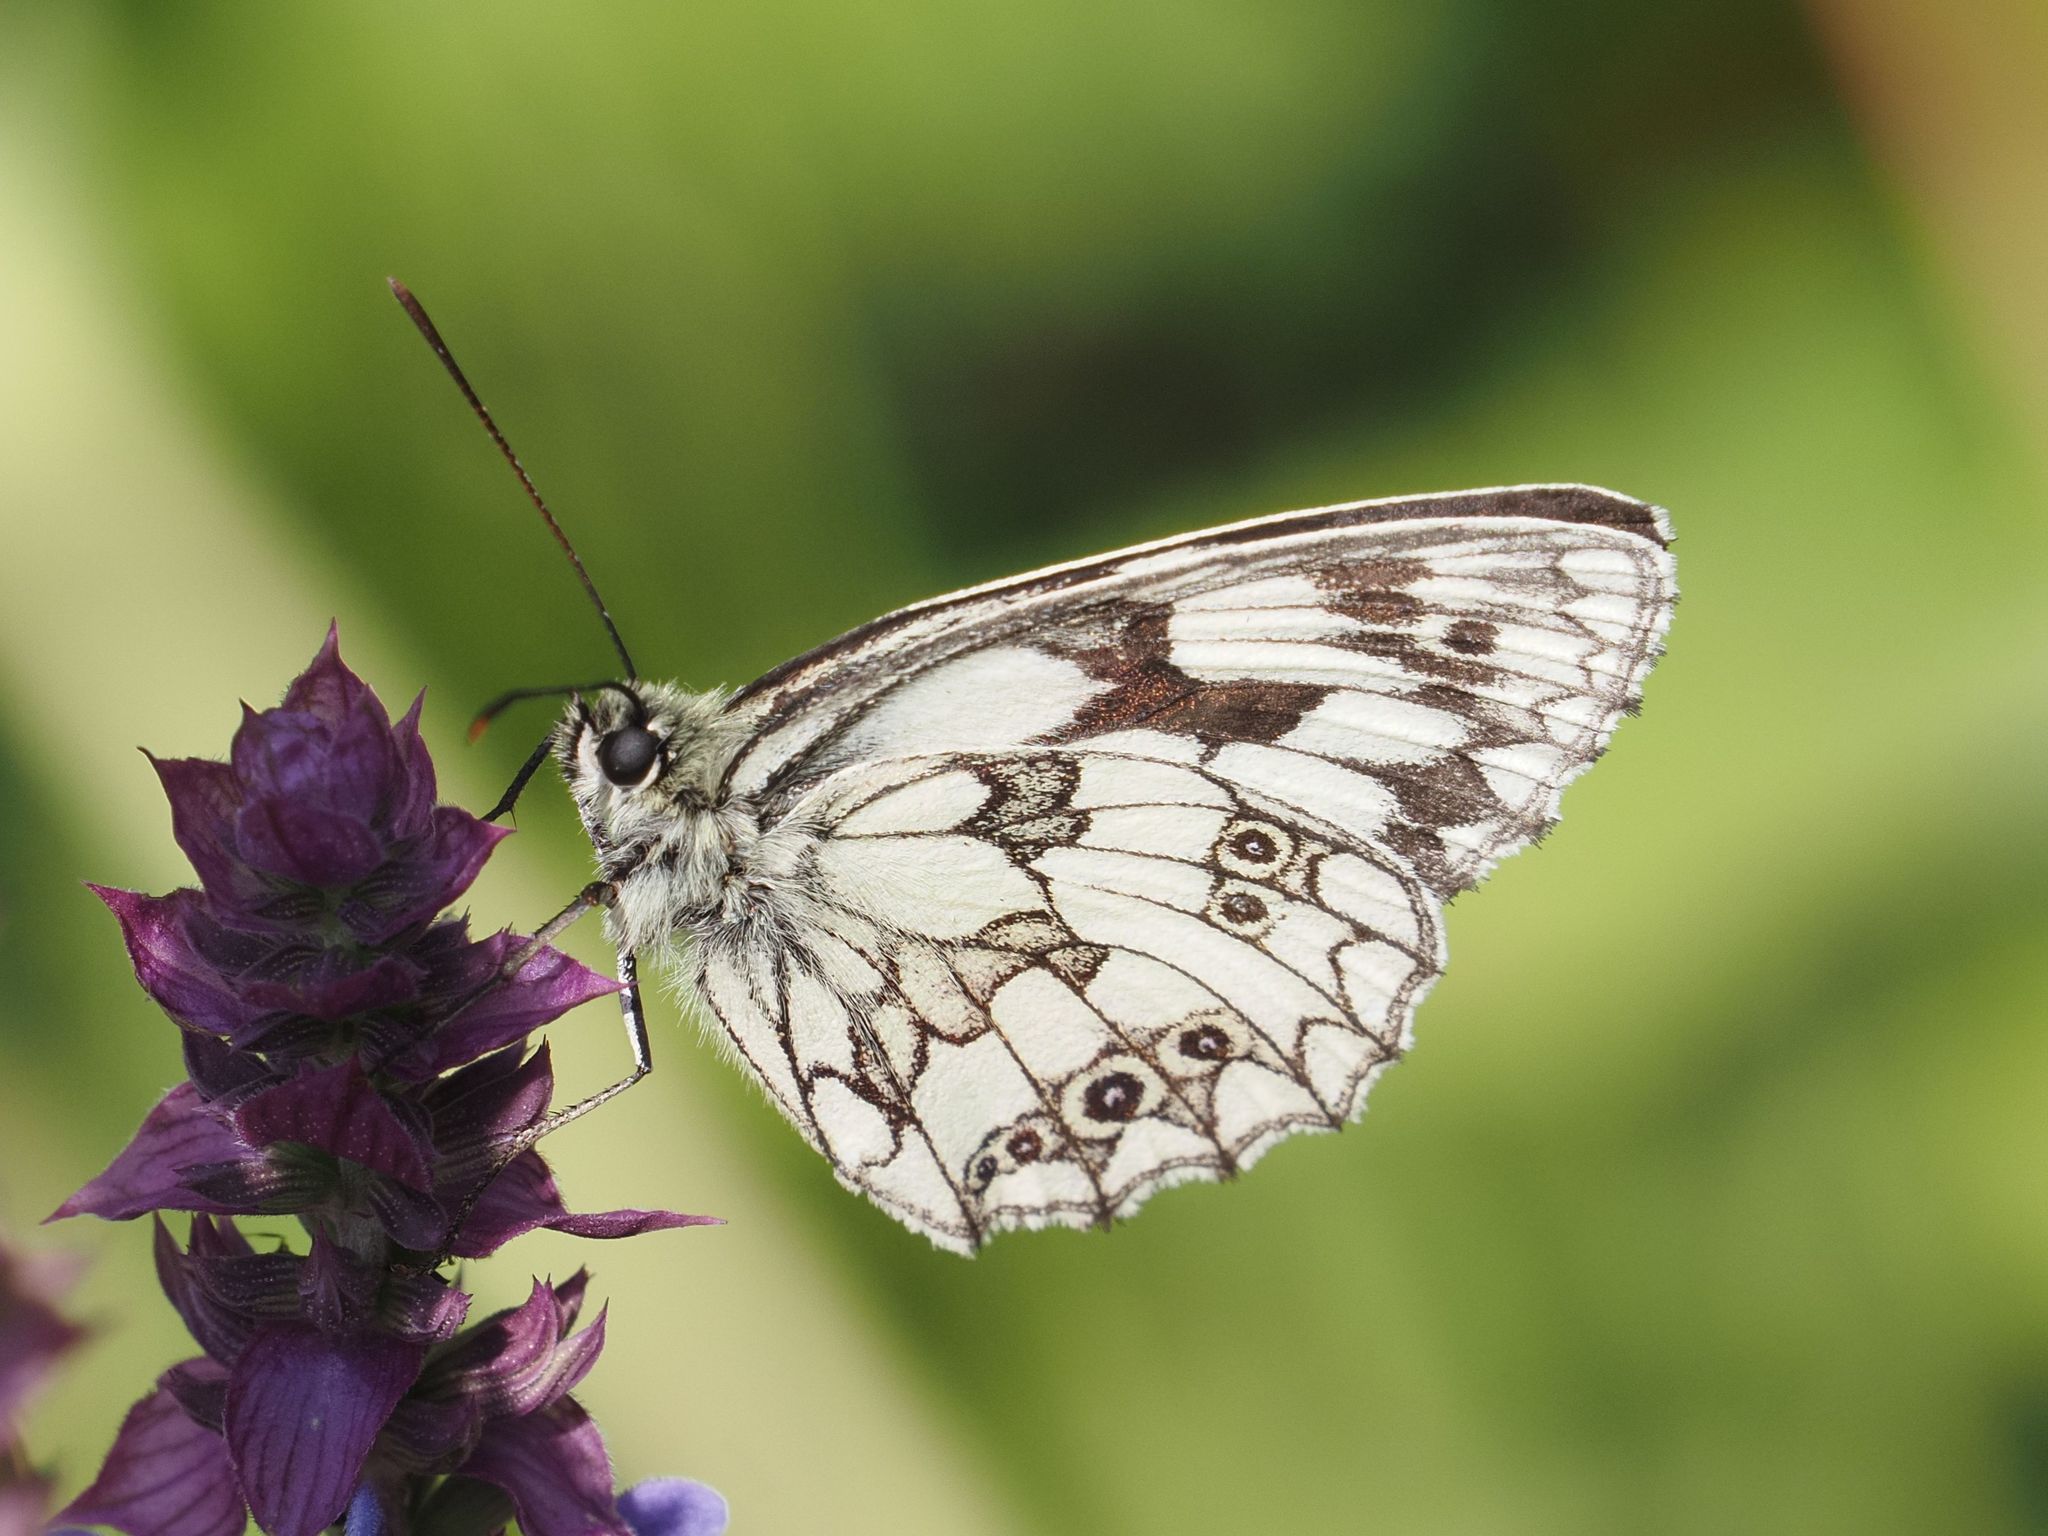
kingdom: Animalia
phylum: Arthropoda
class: Insecta
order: Lepidoptera
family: Nymphalidae
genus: Melanargia
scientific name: Melanargia galathea
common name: Marbled white
